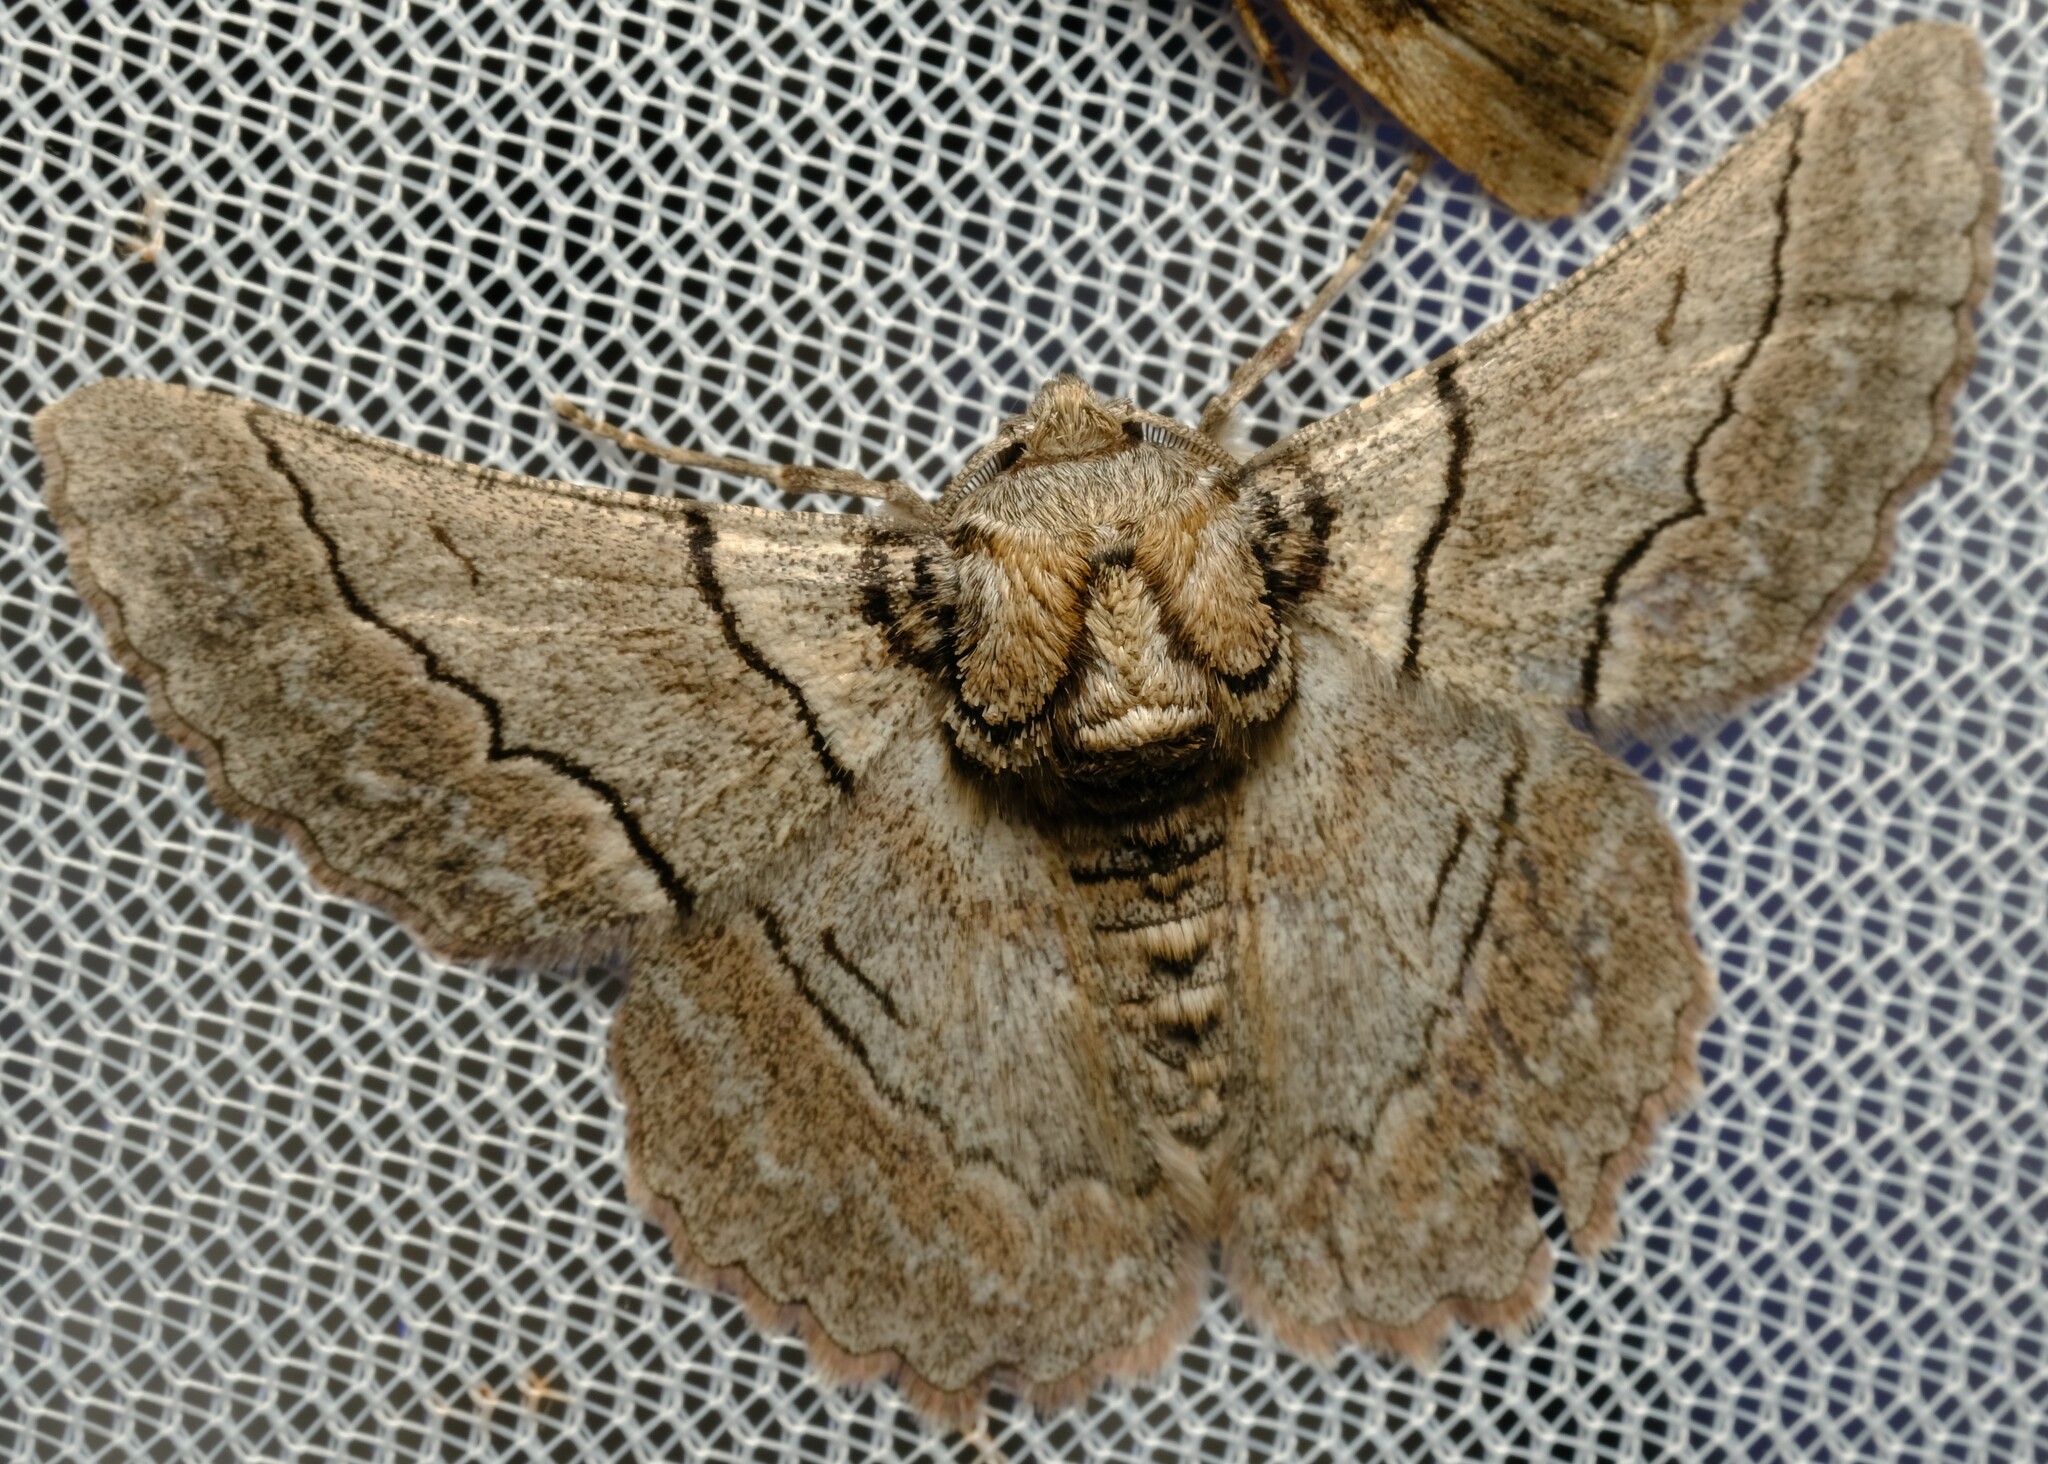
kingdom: Animalia
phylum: Arthropoda
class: Insecta
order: Lepidoptera
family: Geometridae
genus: Hypobapta
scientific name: Hypobapta tachyhalotaria
